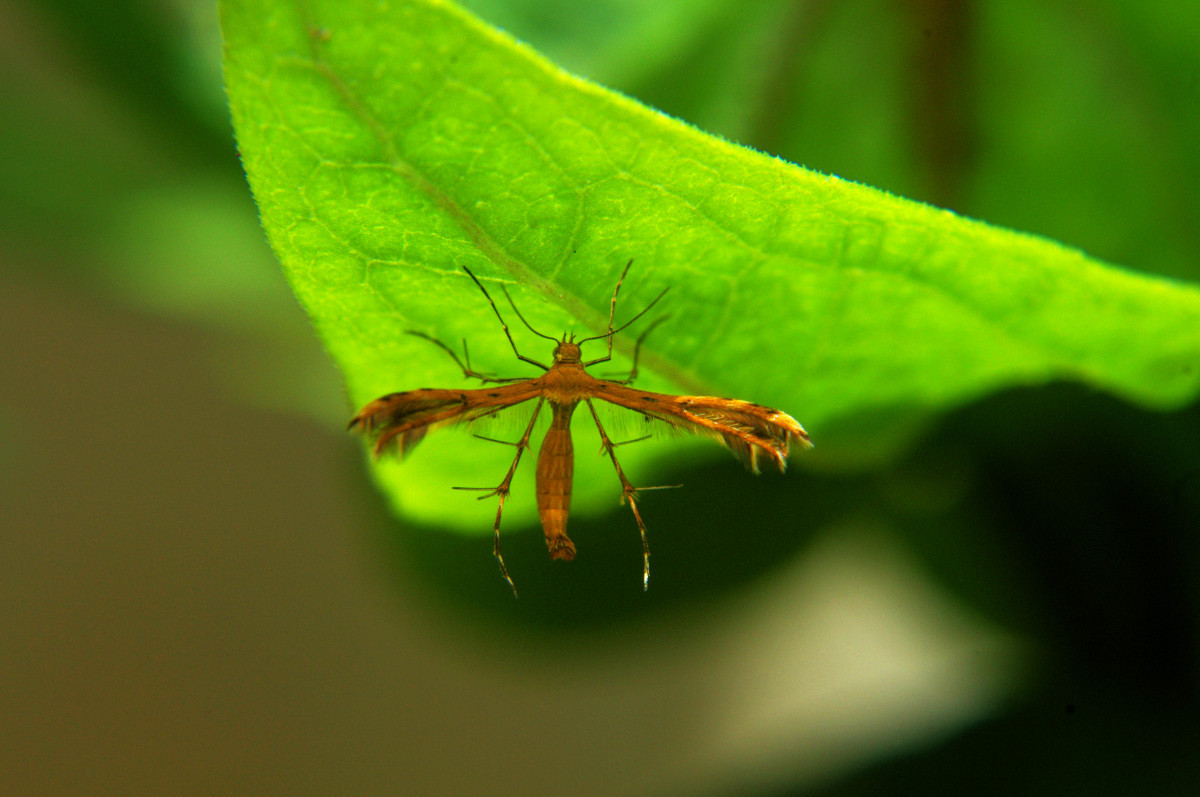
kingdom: Animalia
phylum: Arthropoda
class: Insecta
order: Lepidoptera
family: Pterophoridae
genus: Stenodacma
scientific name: Stenodacma pyrrhodes
